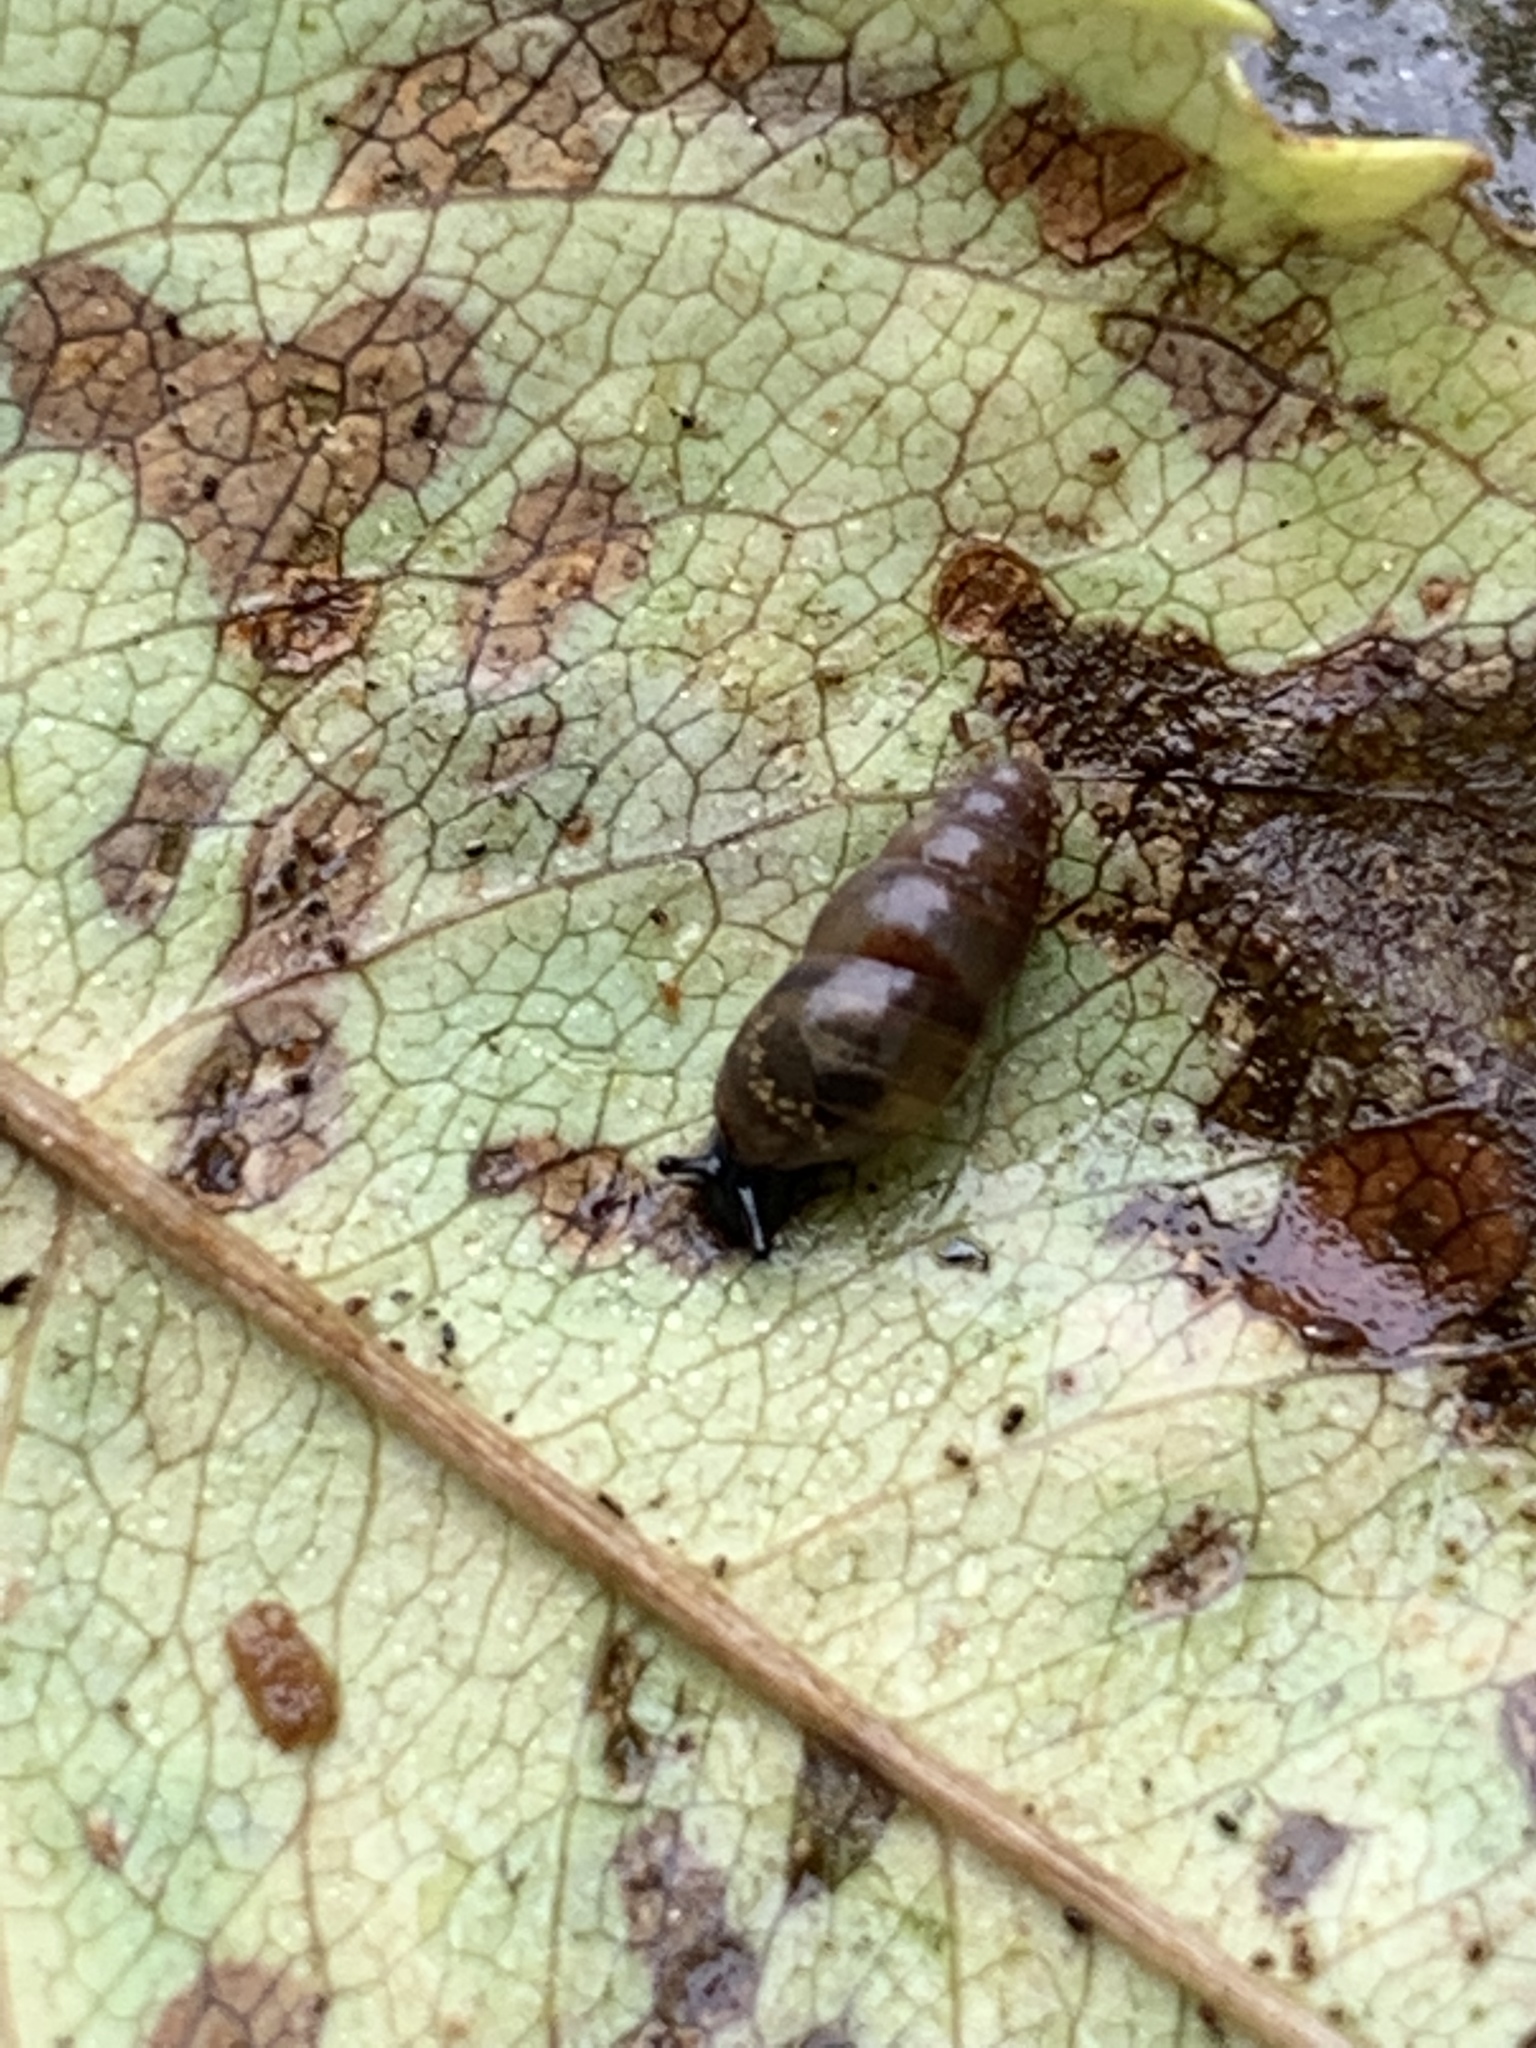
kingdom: Animalia
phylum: Mollusca
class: Gastropoda
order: Stylommatophora
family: Cochlicopidae
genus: Cochlicopa
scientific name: Cochlicopa lubrica
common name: Glossy pillar snail
